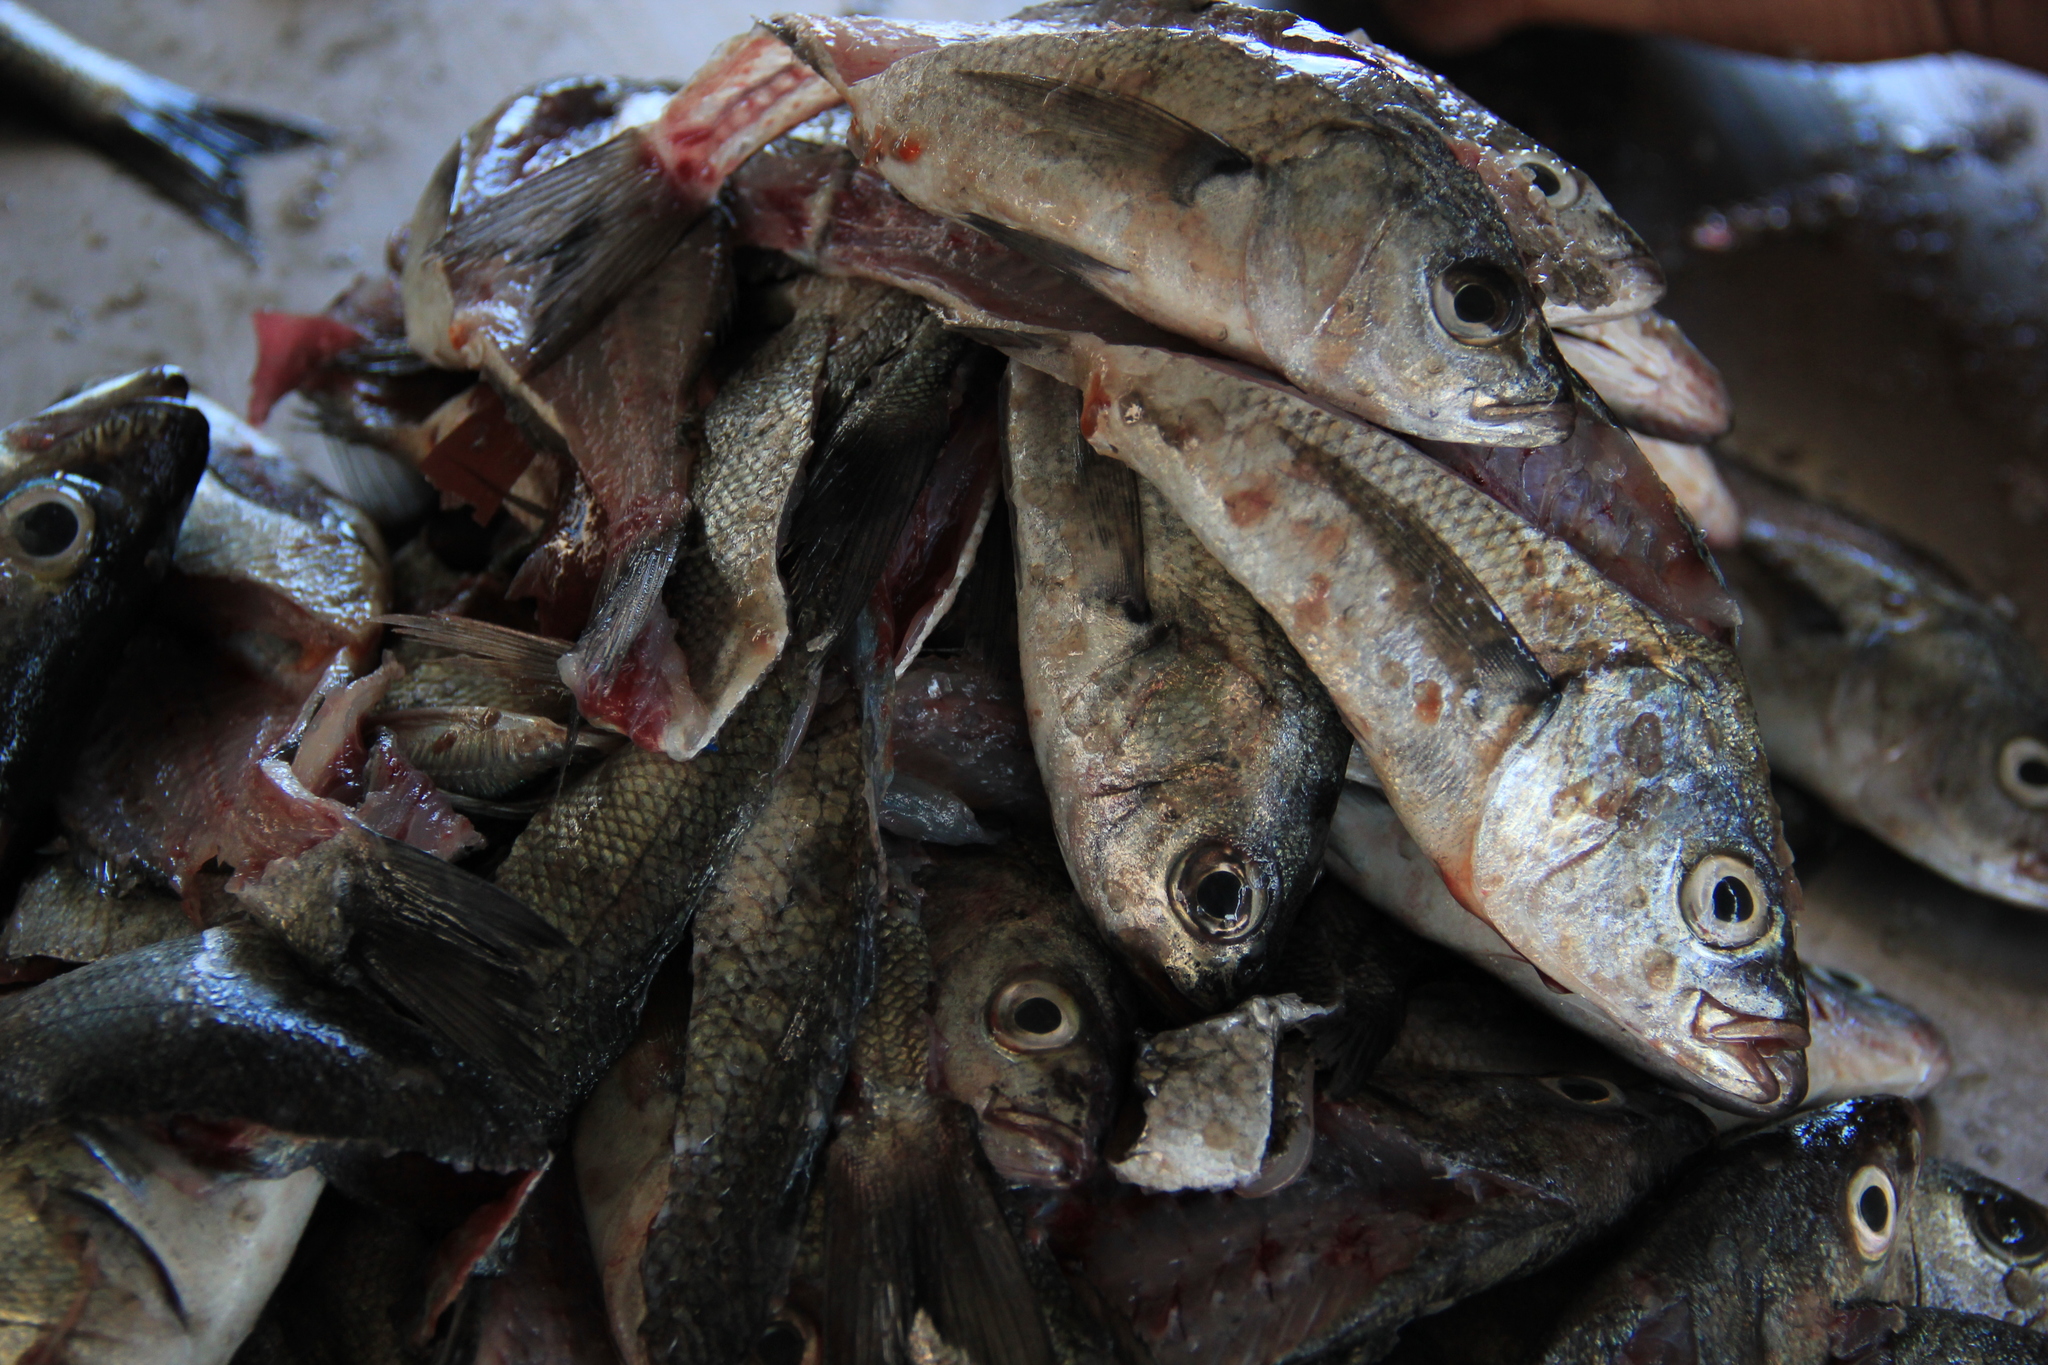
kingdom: Animalia
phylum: Chordata
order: Perciformes
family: Haemulidae
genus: Isacia
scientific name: Isacia conceptionis
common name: Cabinza grunt
